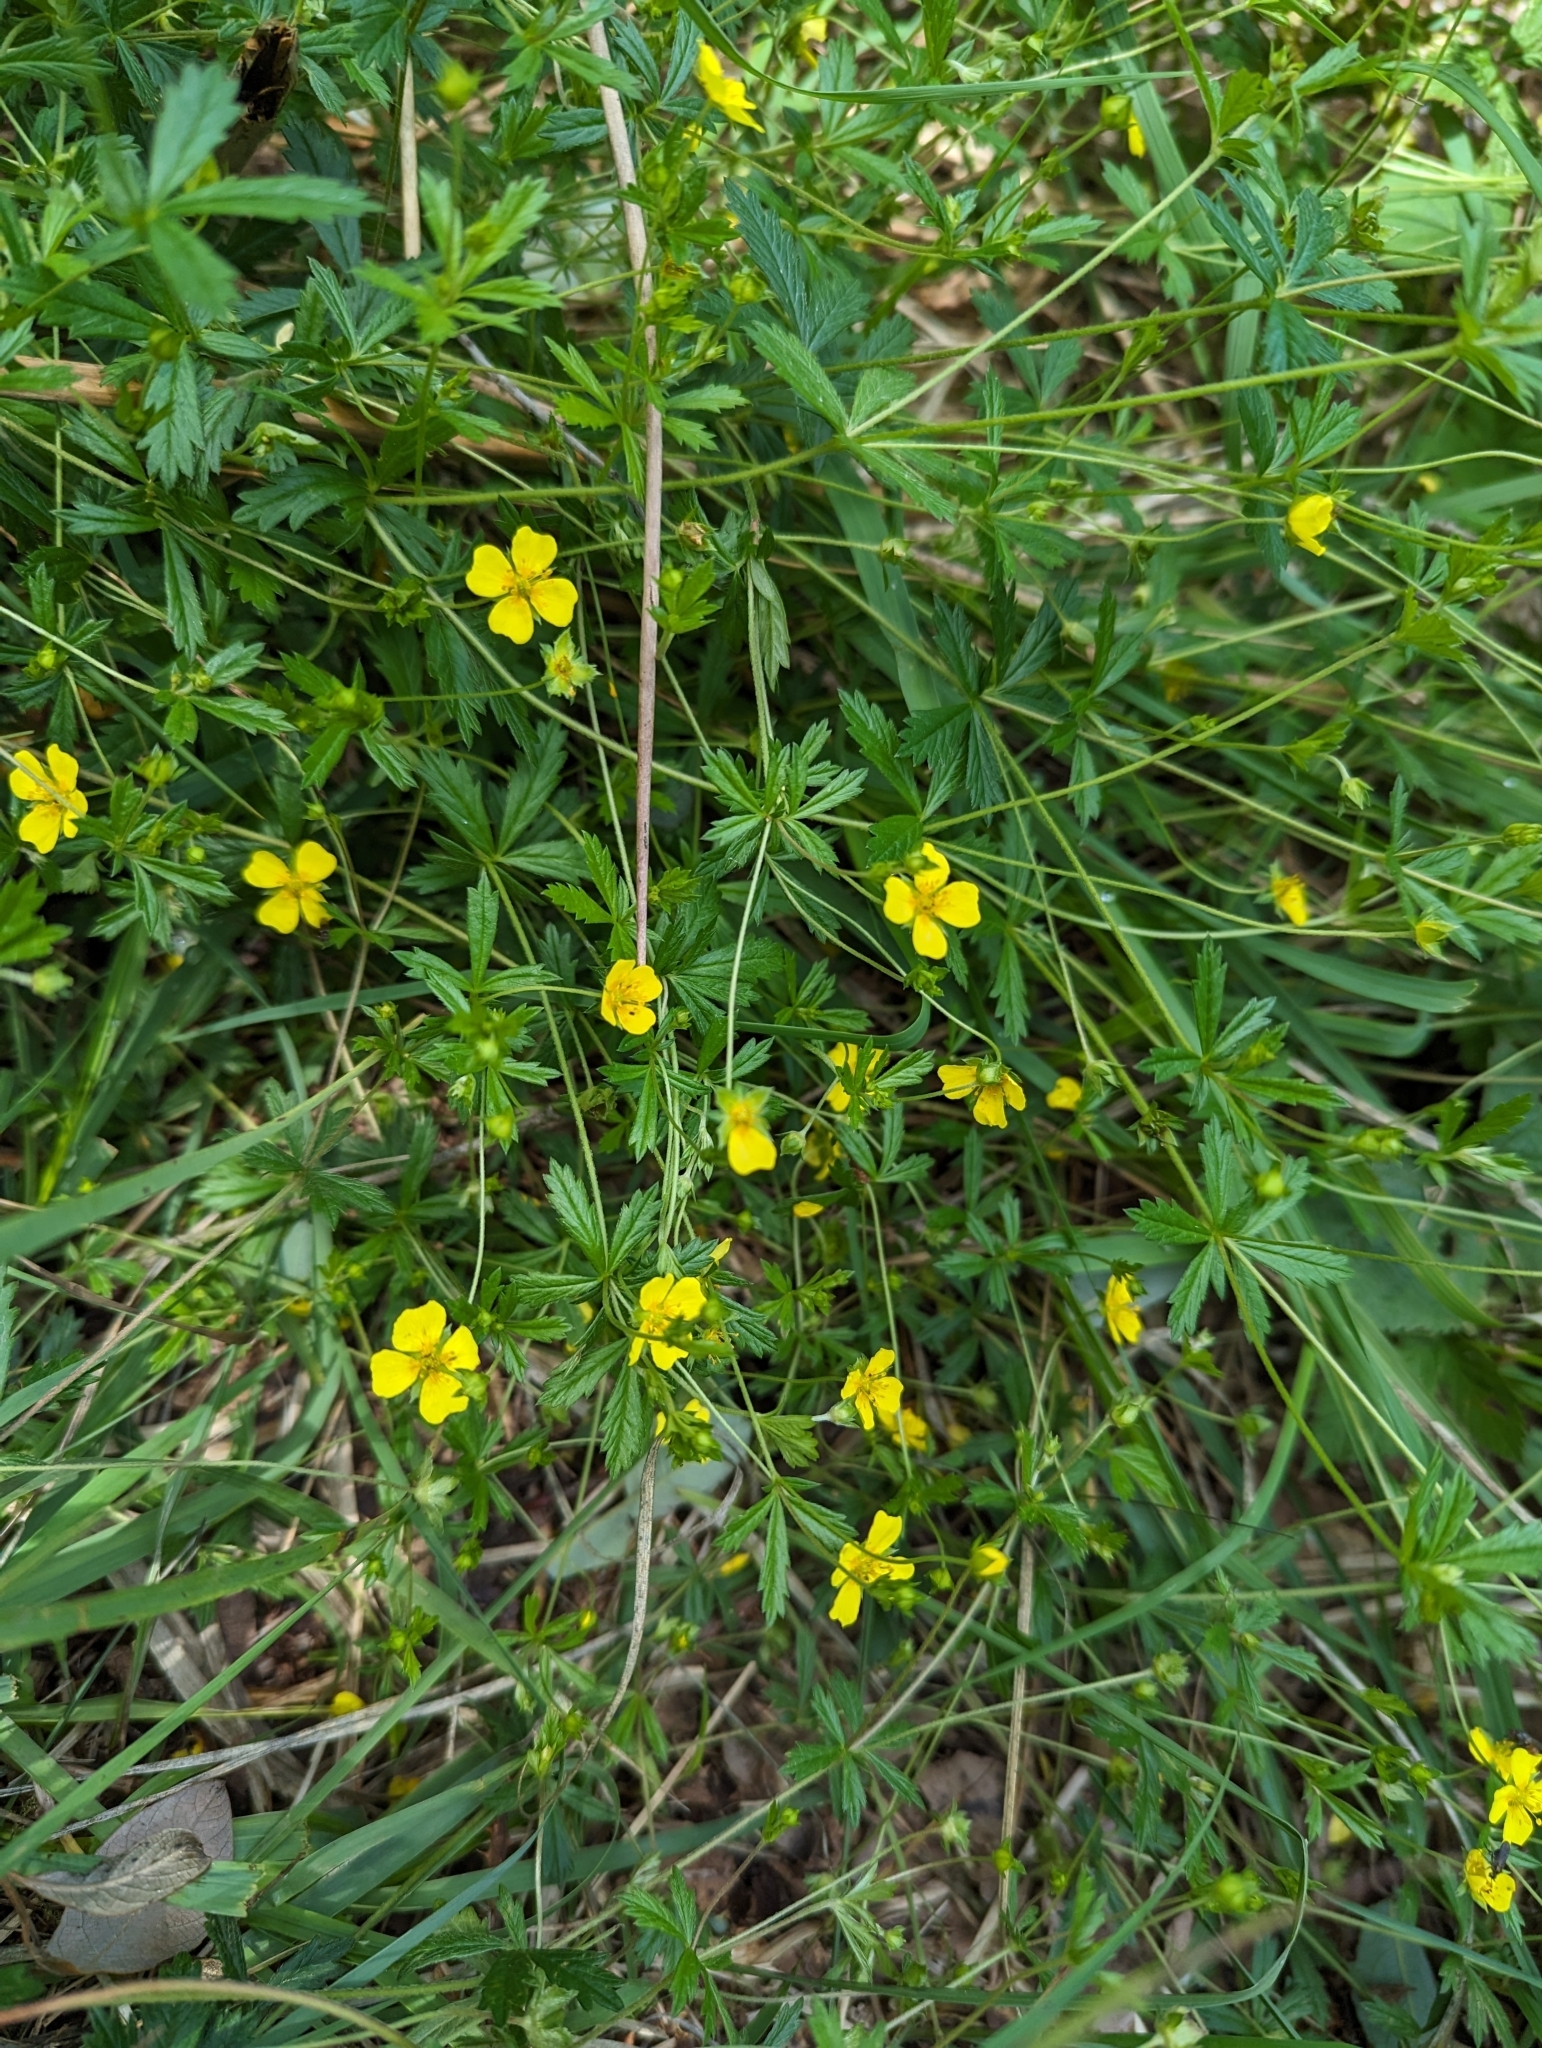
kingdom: Plantae
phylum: Tracheophyta
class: Magnoliopsida
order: Rosales
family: Rosaceae
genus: Potentilla
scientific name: Potentilla erecta
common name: Tormentil
